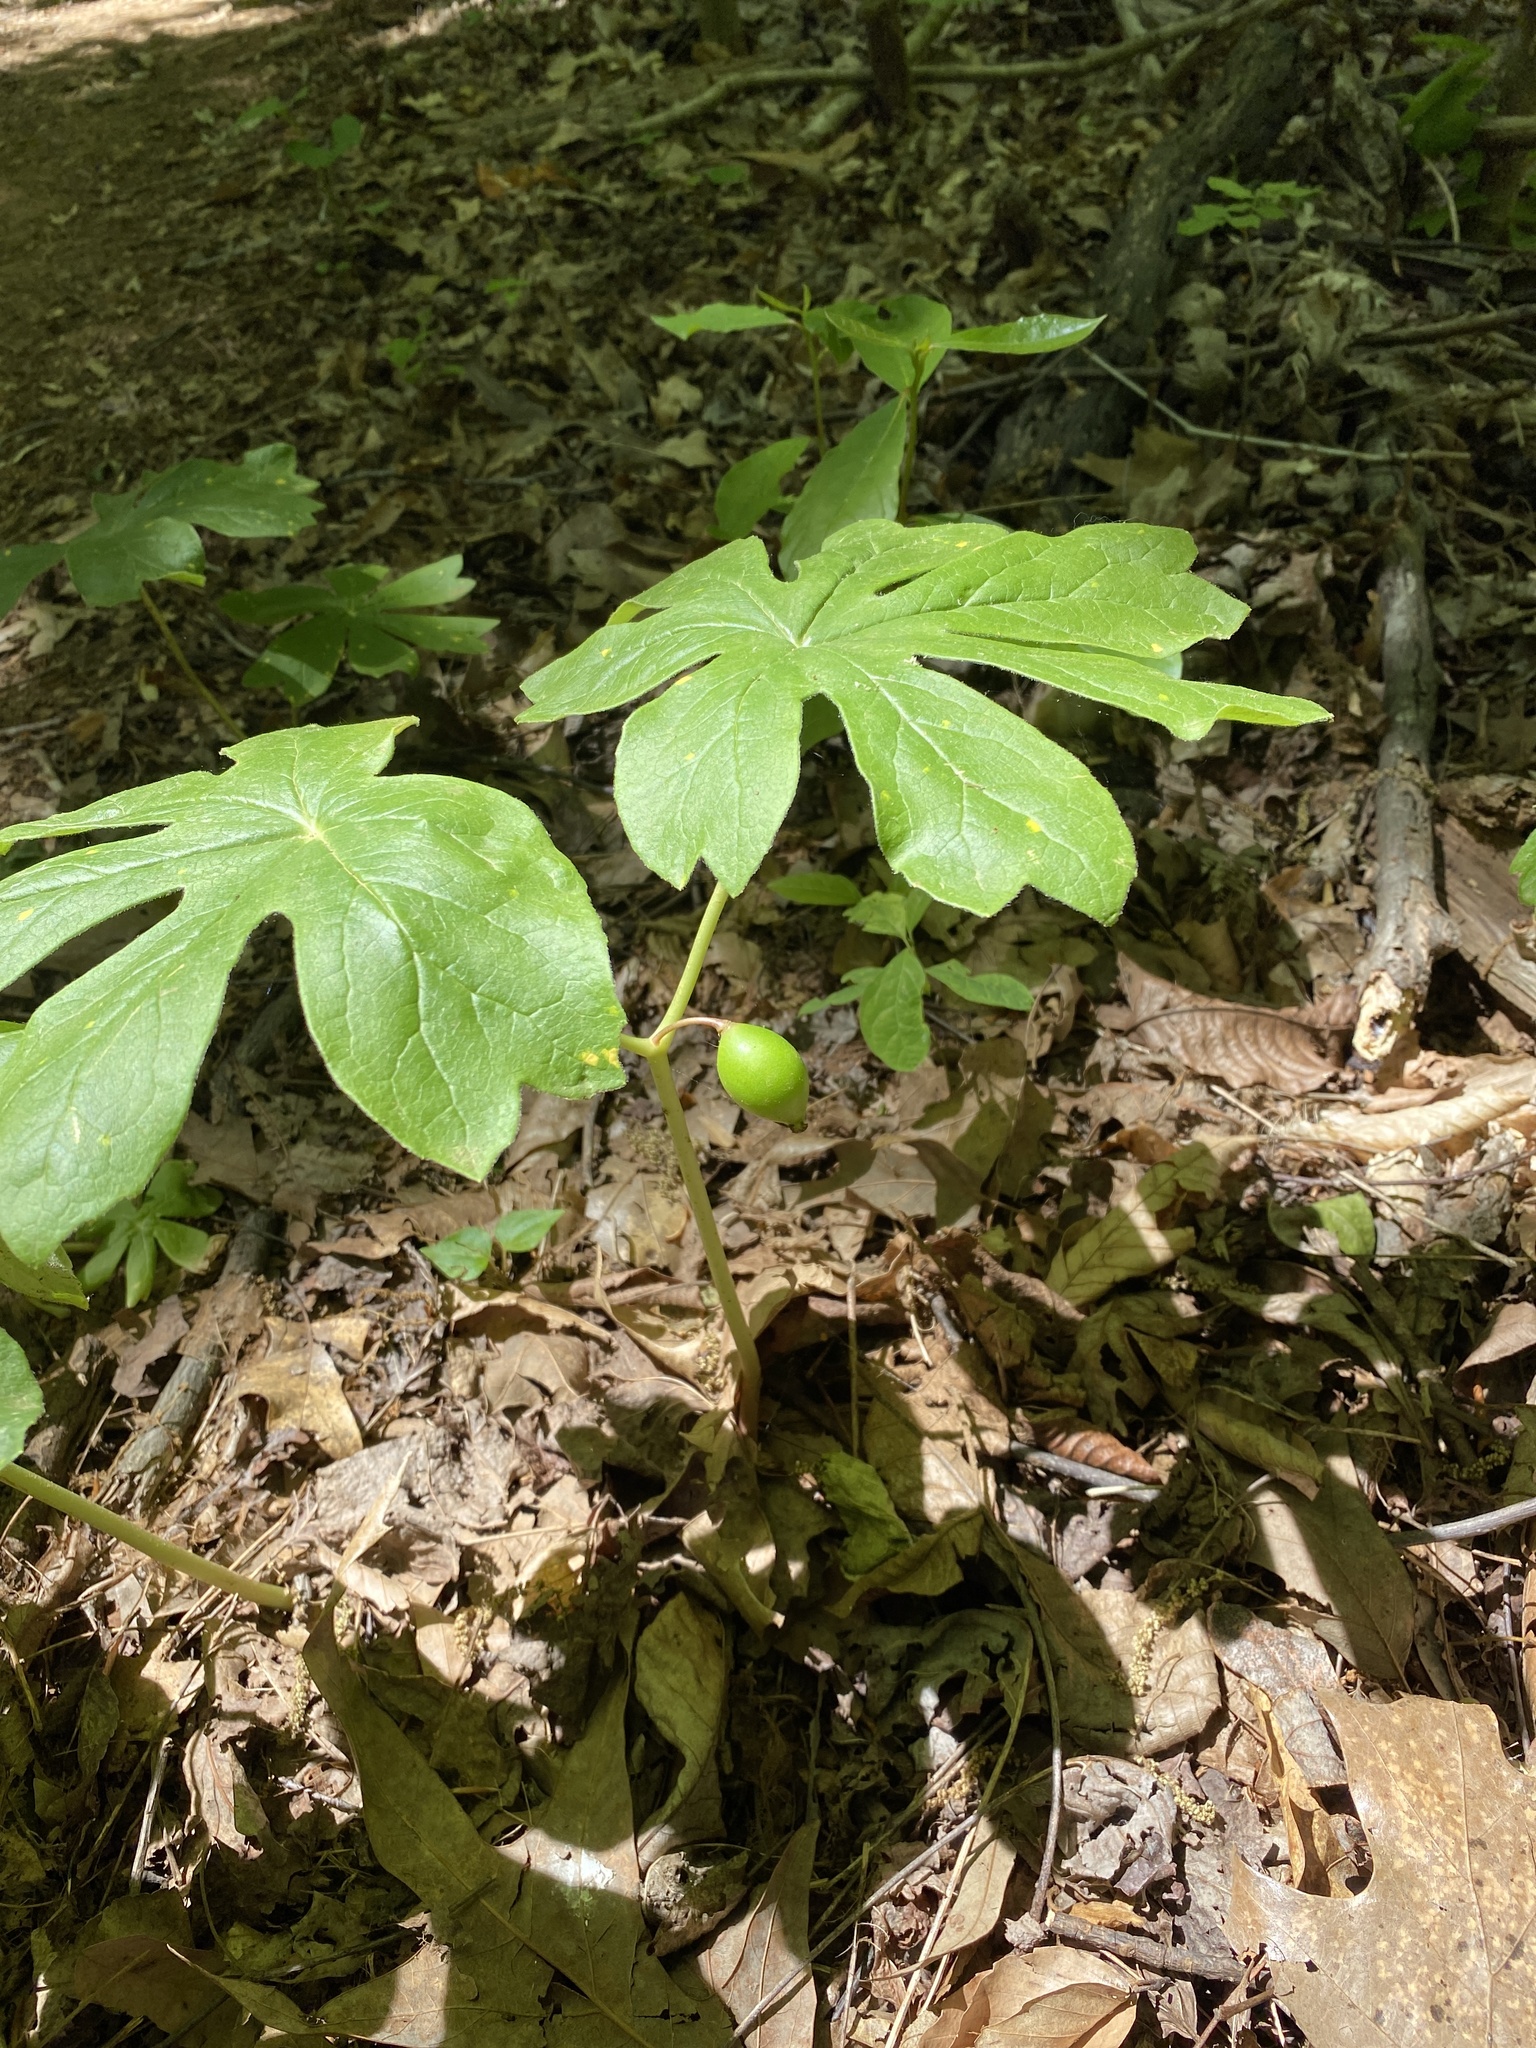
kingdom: Plantae
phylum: Tracheophyta
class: Magnoliopsida
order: Ranunculales
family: Berberidaceae
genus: Podophyllum
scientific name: Podophyllum peltatum
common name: Wild mandrake
